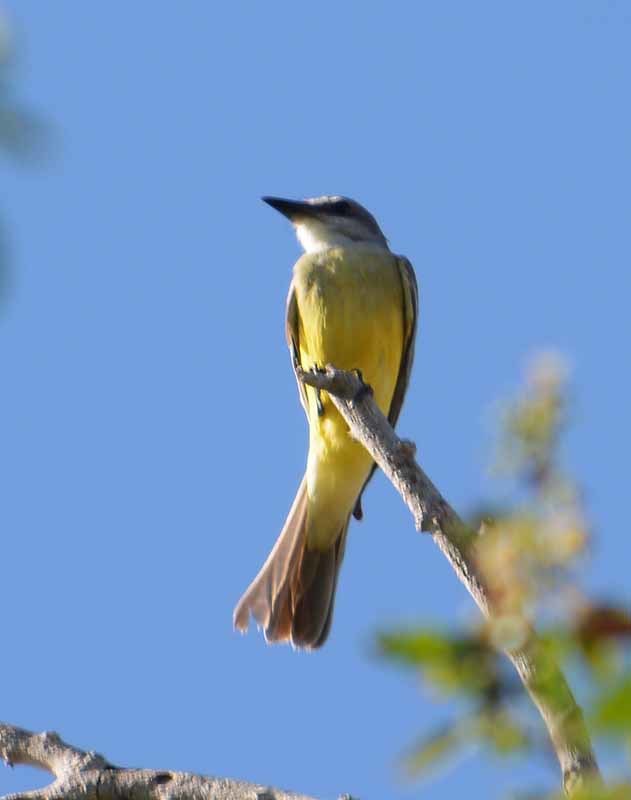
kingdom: Animalia
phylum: Chordata
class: Aves
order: Passeriformes
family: Tyrannidae
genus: Tyrannus
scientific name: Tyrannus melancholicus
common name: Tropical kingbird
